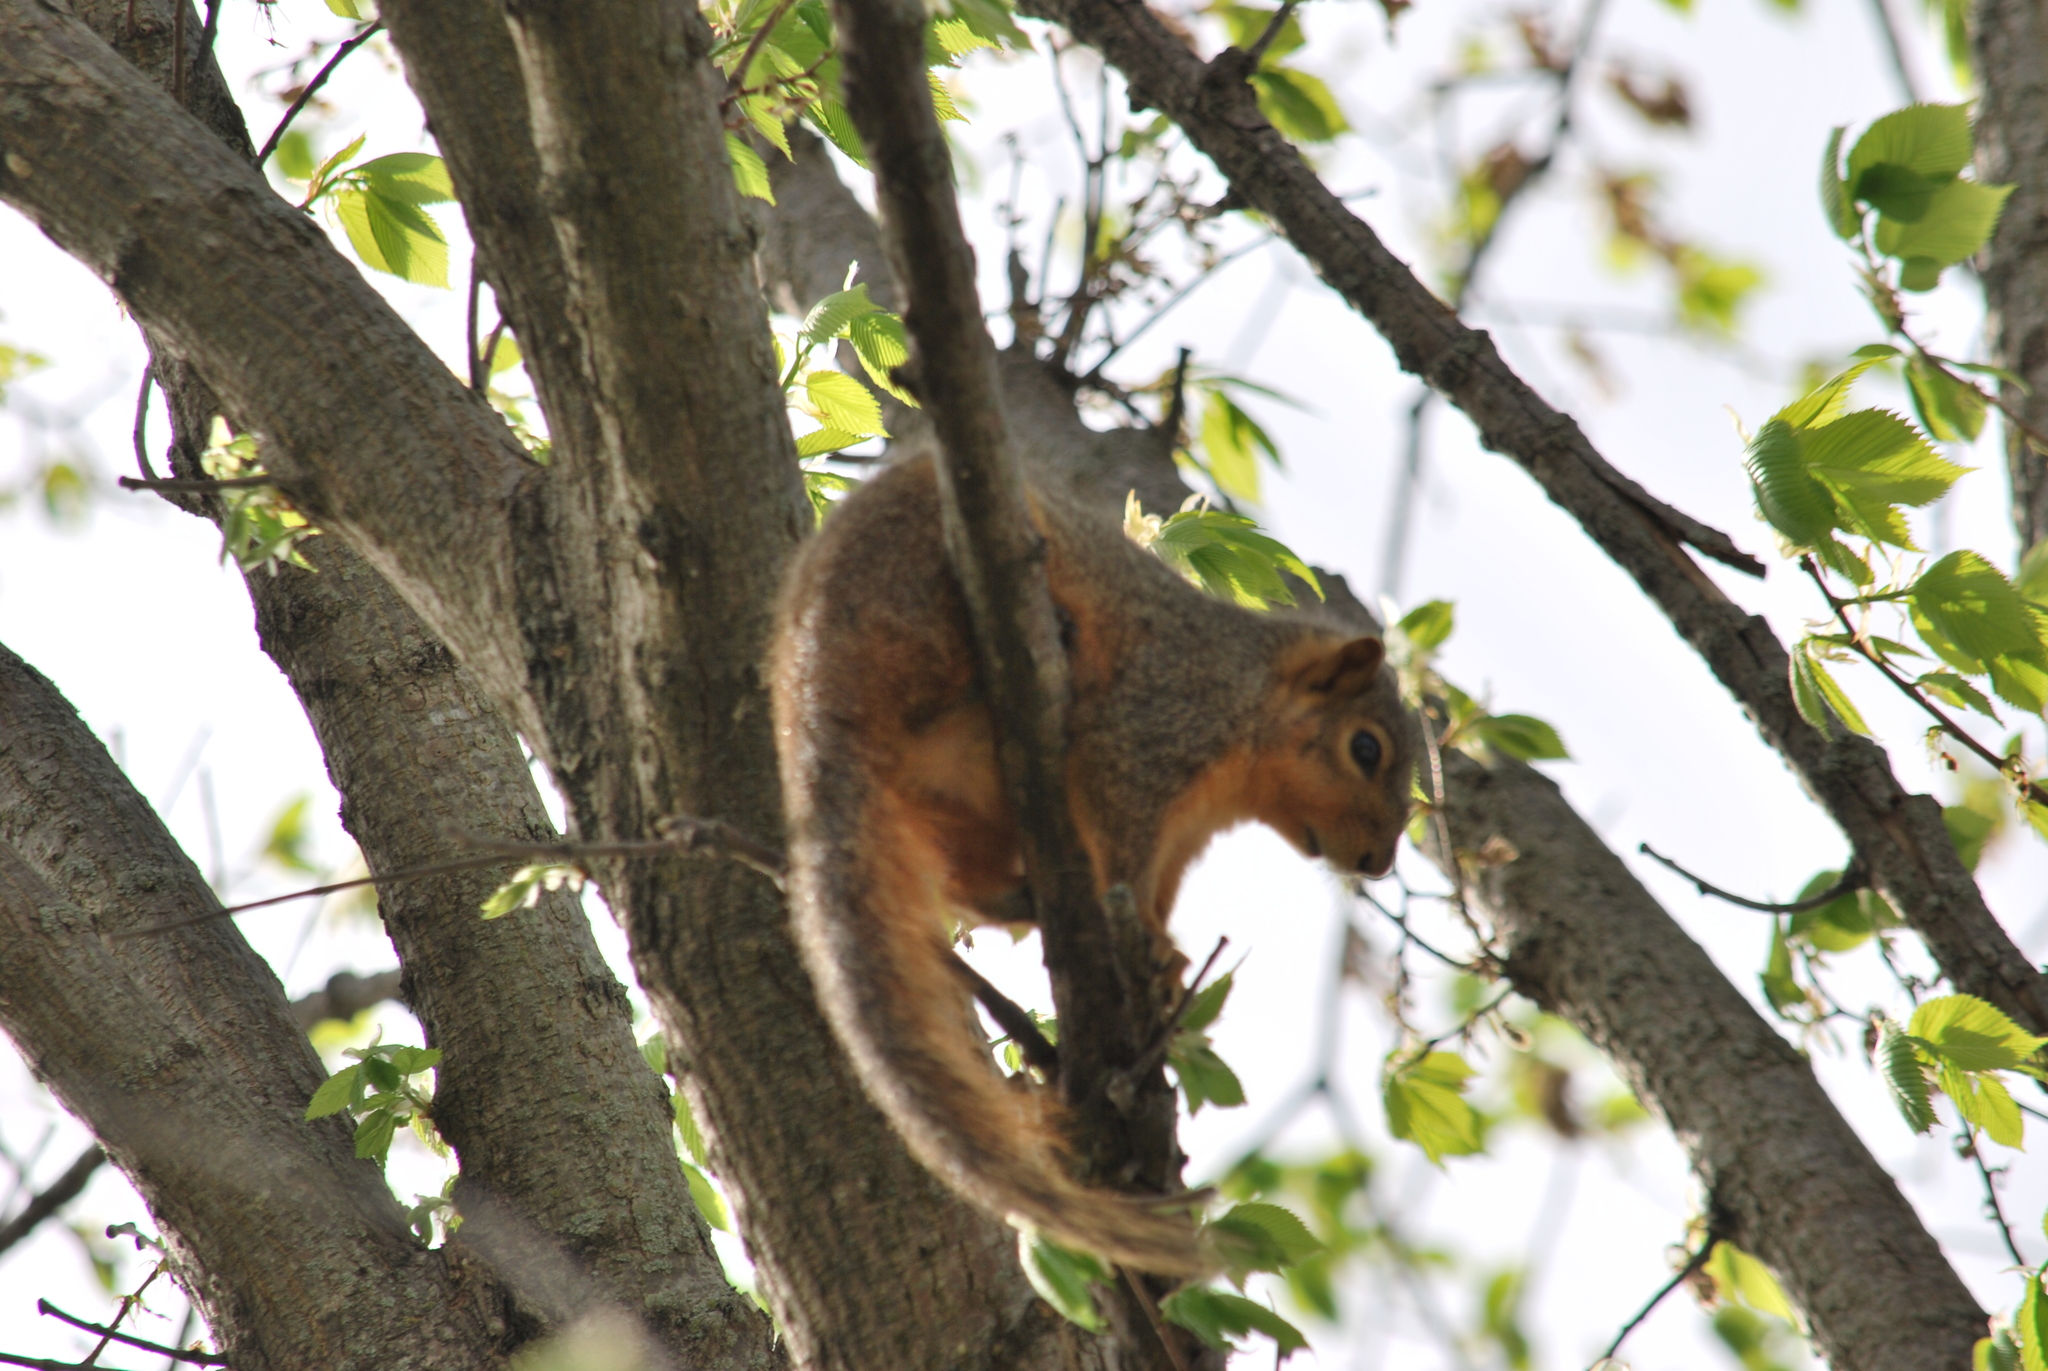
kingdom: Animalia
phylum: Chordata
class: Mammalia
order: Rodentia
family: Sciuridae
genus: Sciurus
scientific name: Sciurus niger
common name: Fox squirrel
